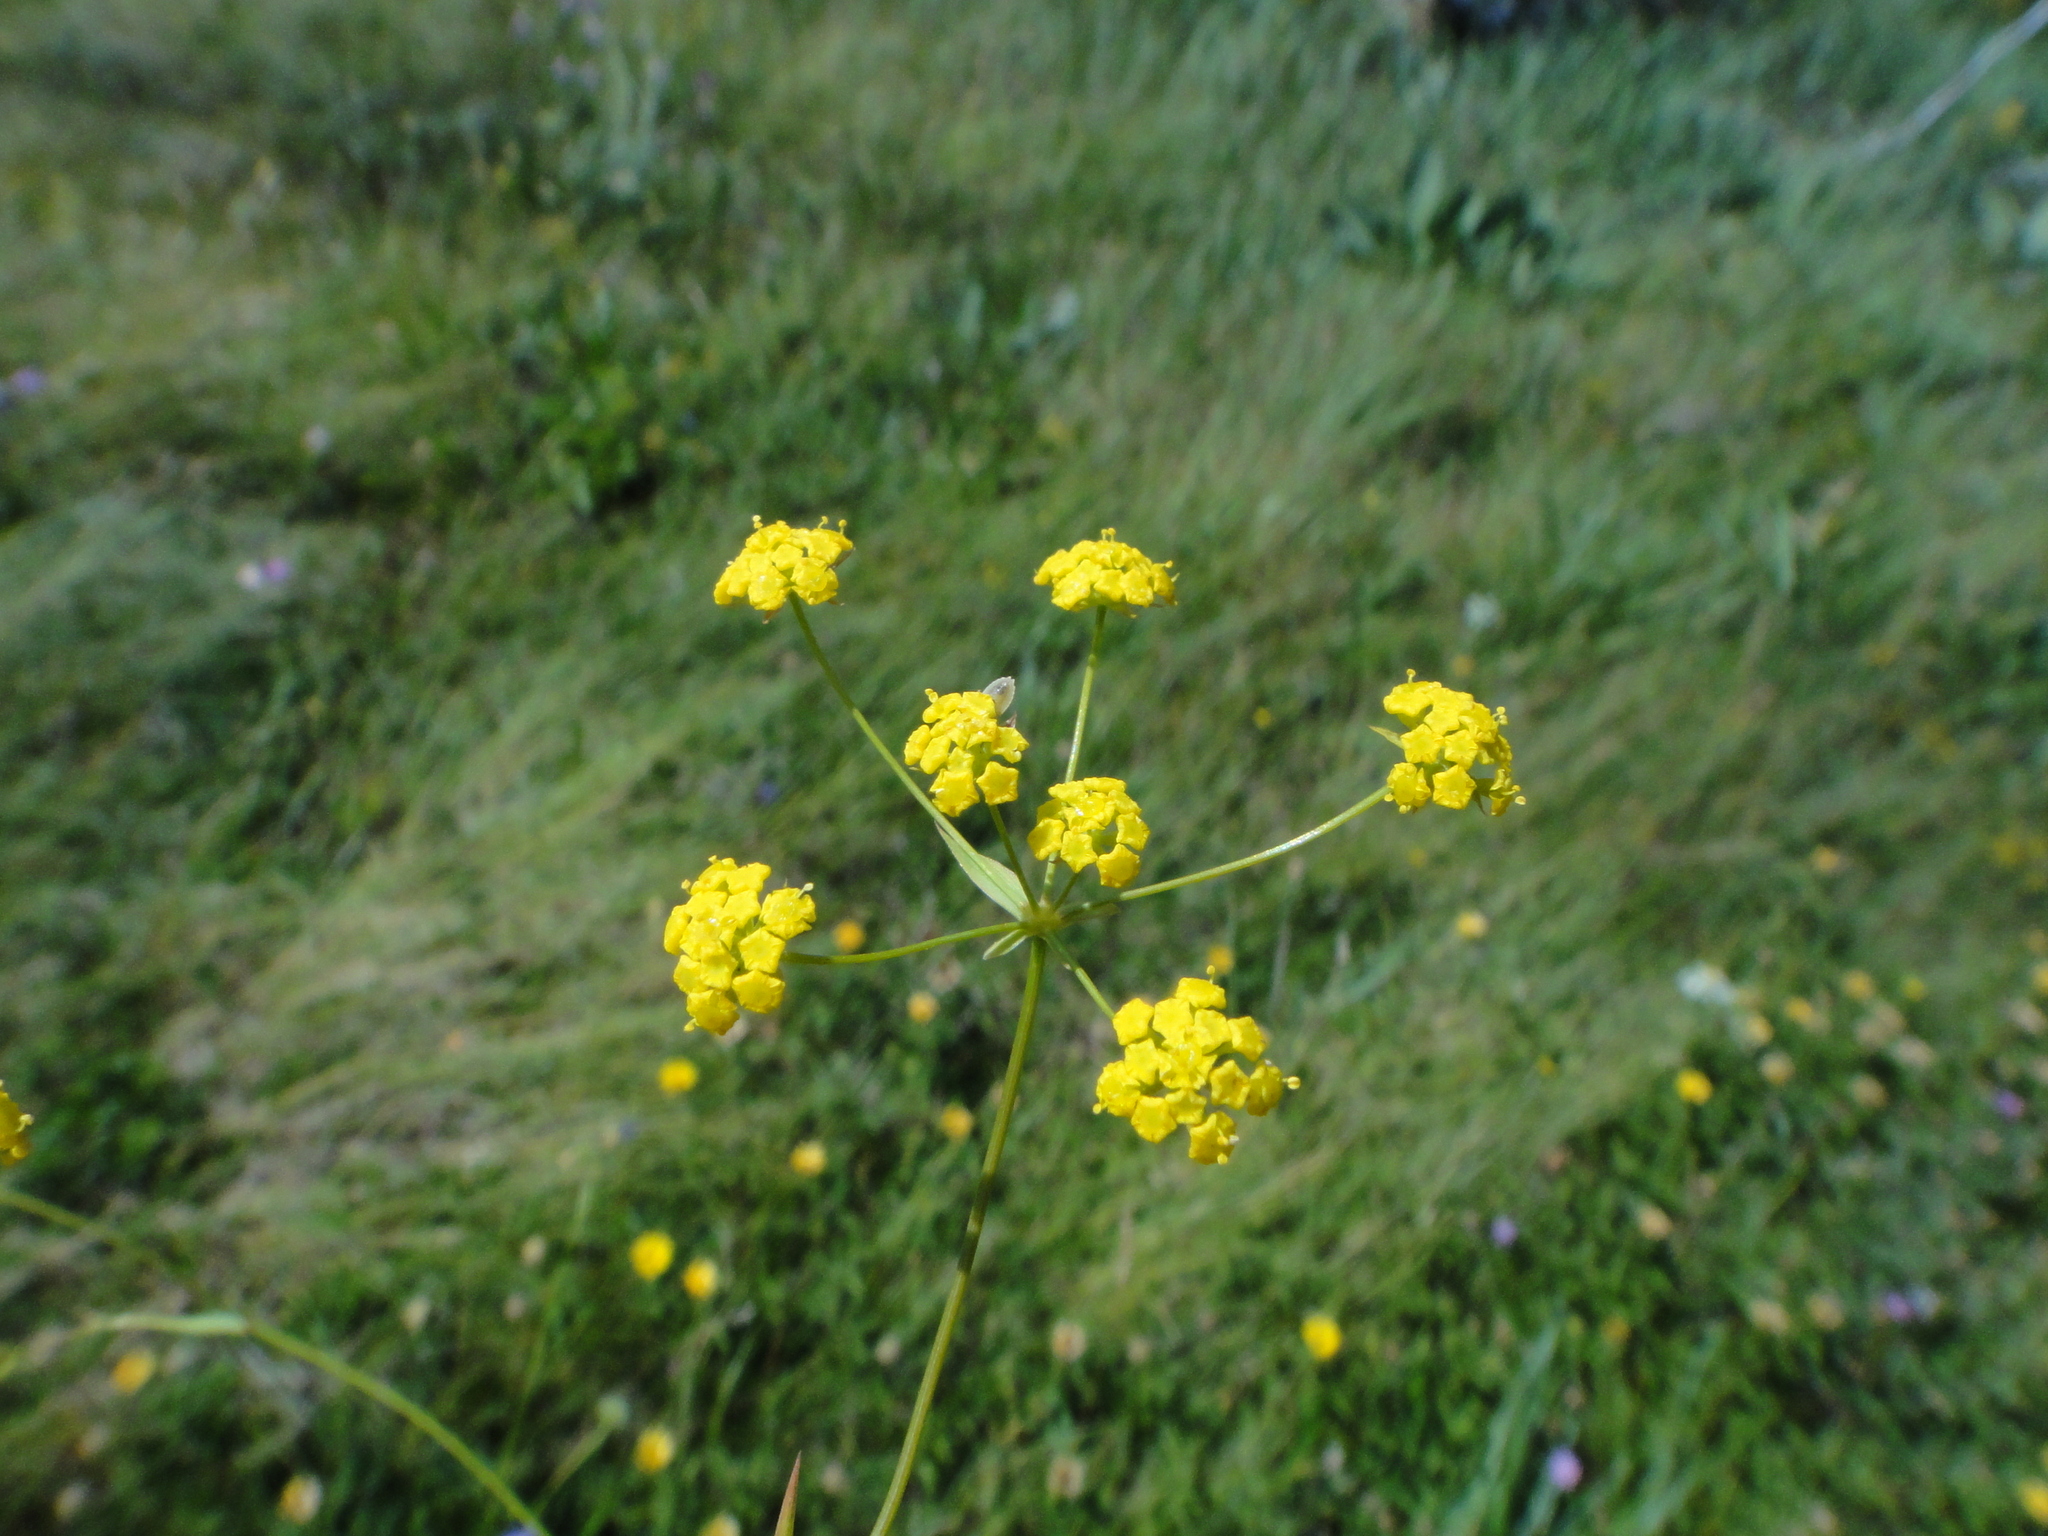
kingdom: Plantae
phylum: Tracheophyta
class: Magnoliopsida
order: Apiales
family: Apiaceae
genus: Bupleurum
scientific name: Bupleurum falcatum
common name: Sickle-leaved hare's-ear
